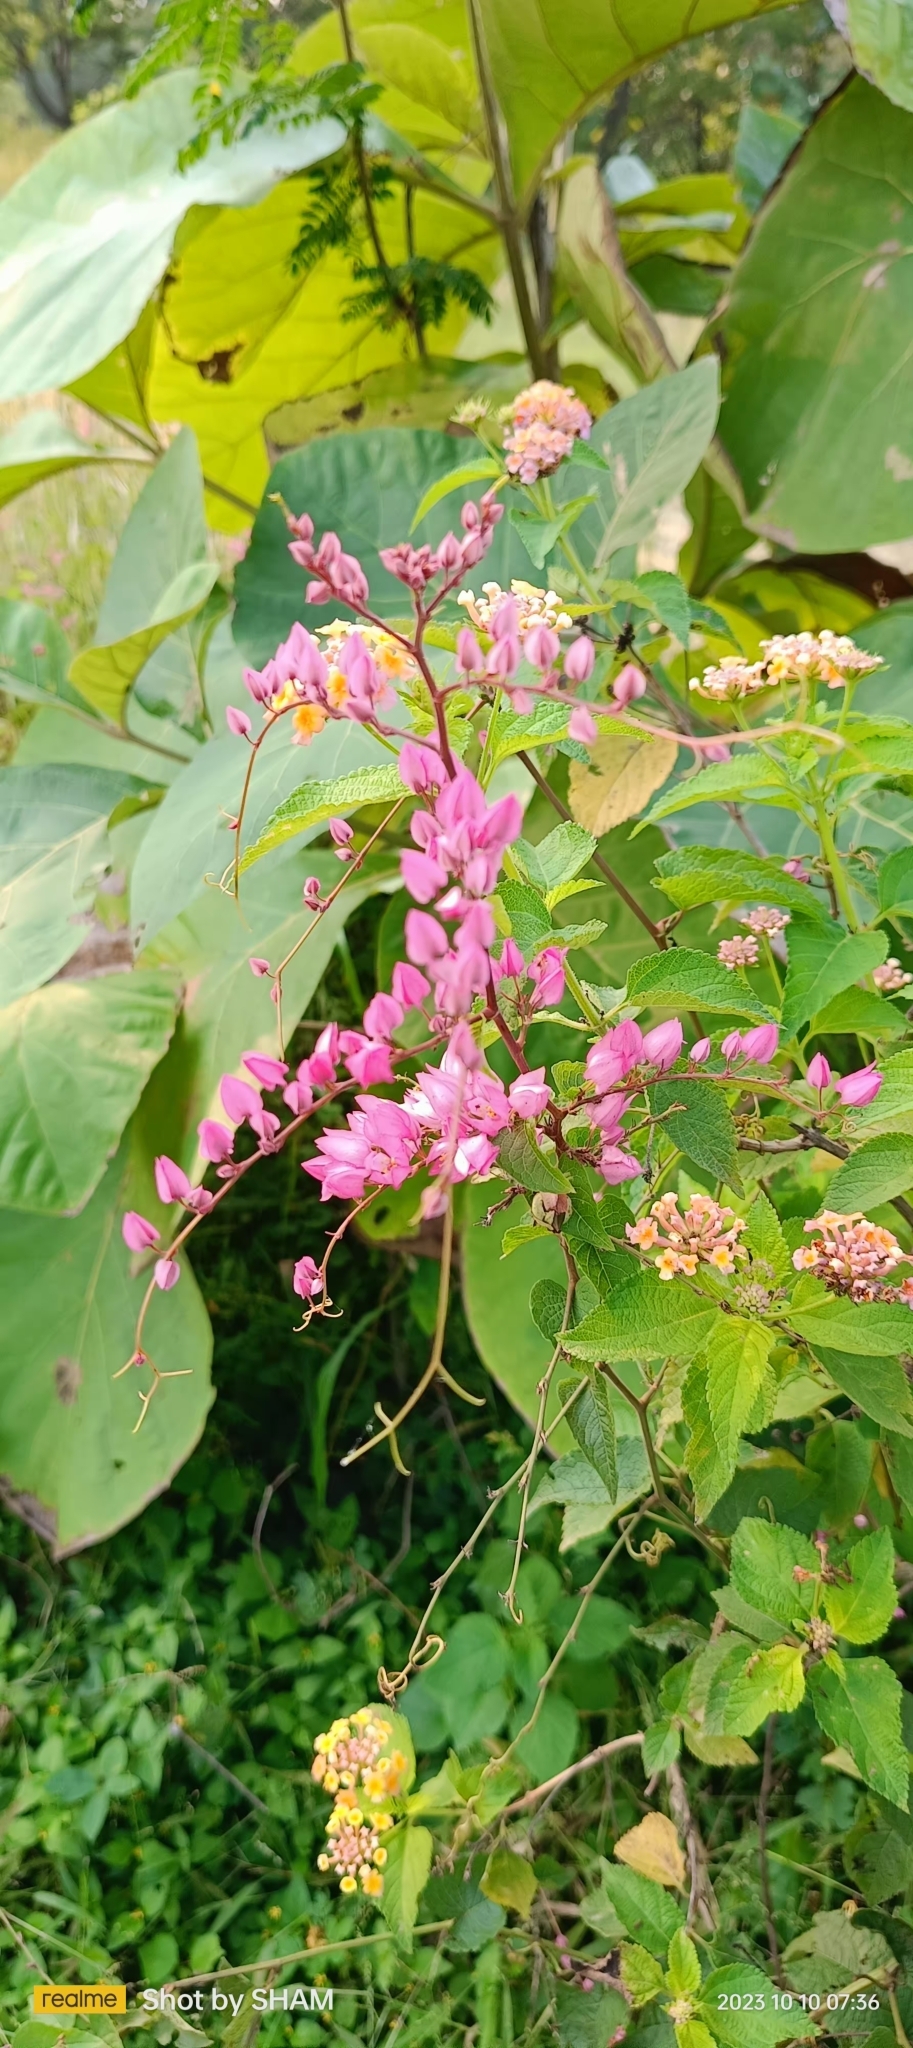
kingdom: Plantae
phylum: Tracheophyta
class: Magnoliopsida
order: Caryophyllales
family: Polygonaceae
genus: Antigonon
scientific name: Antigonon leptopus
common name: Coral vine
